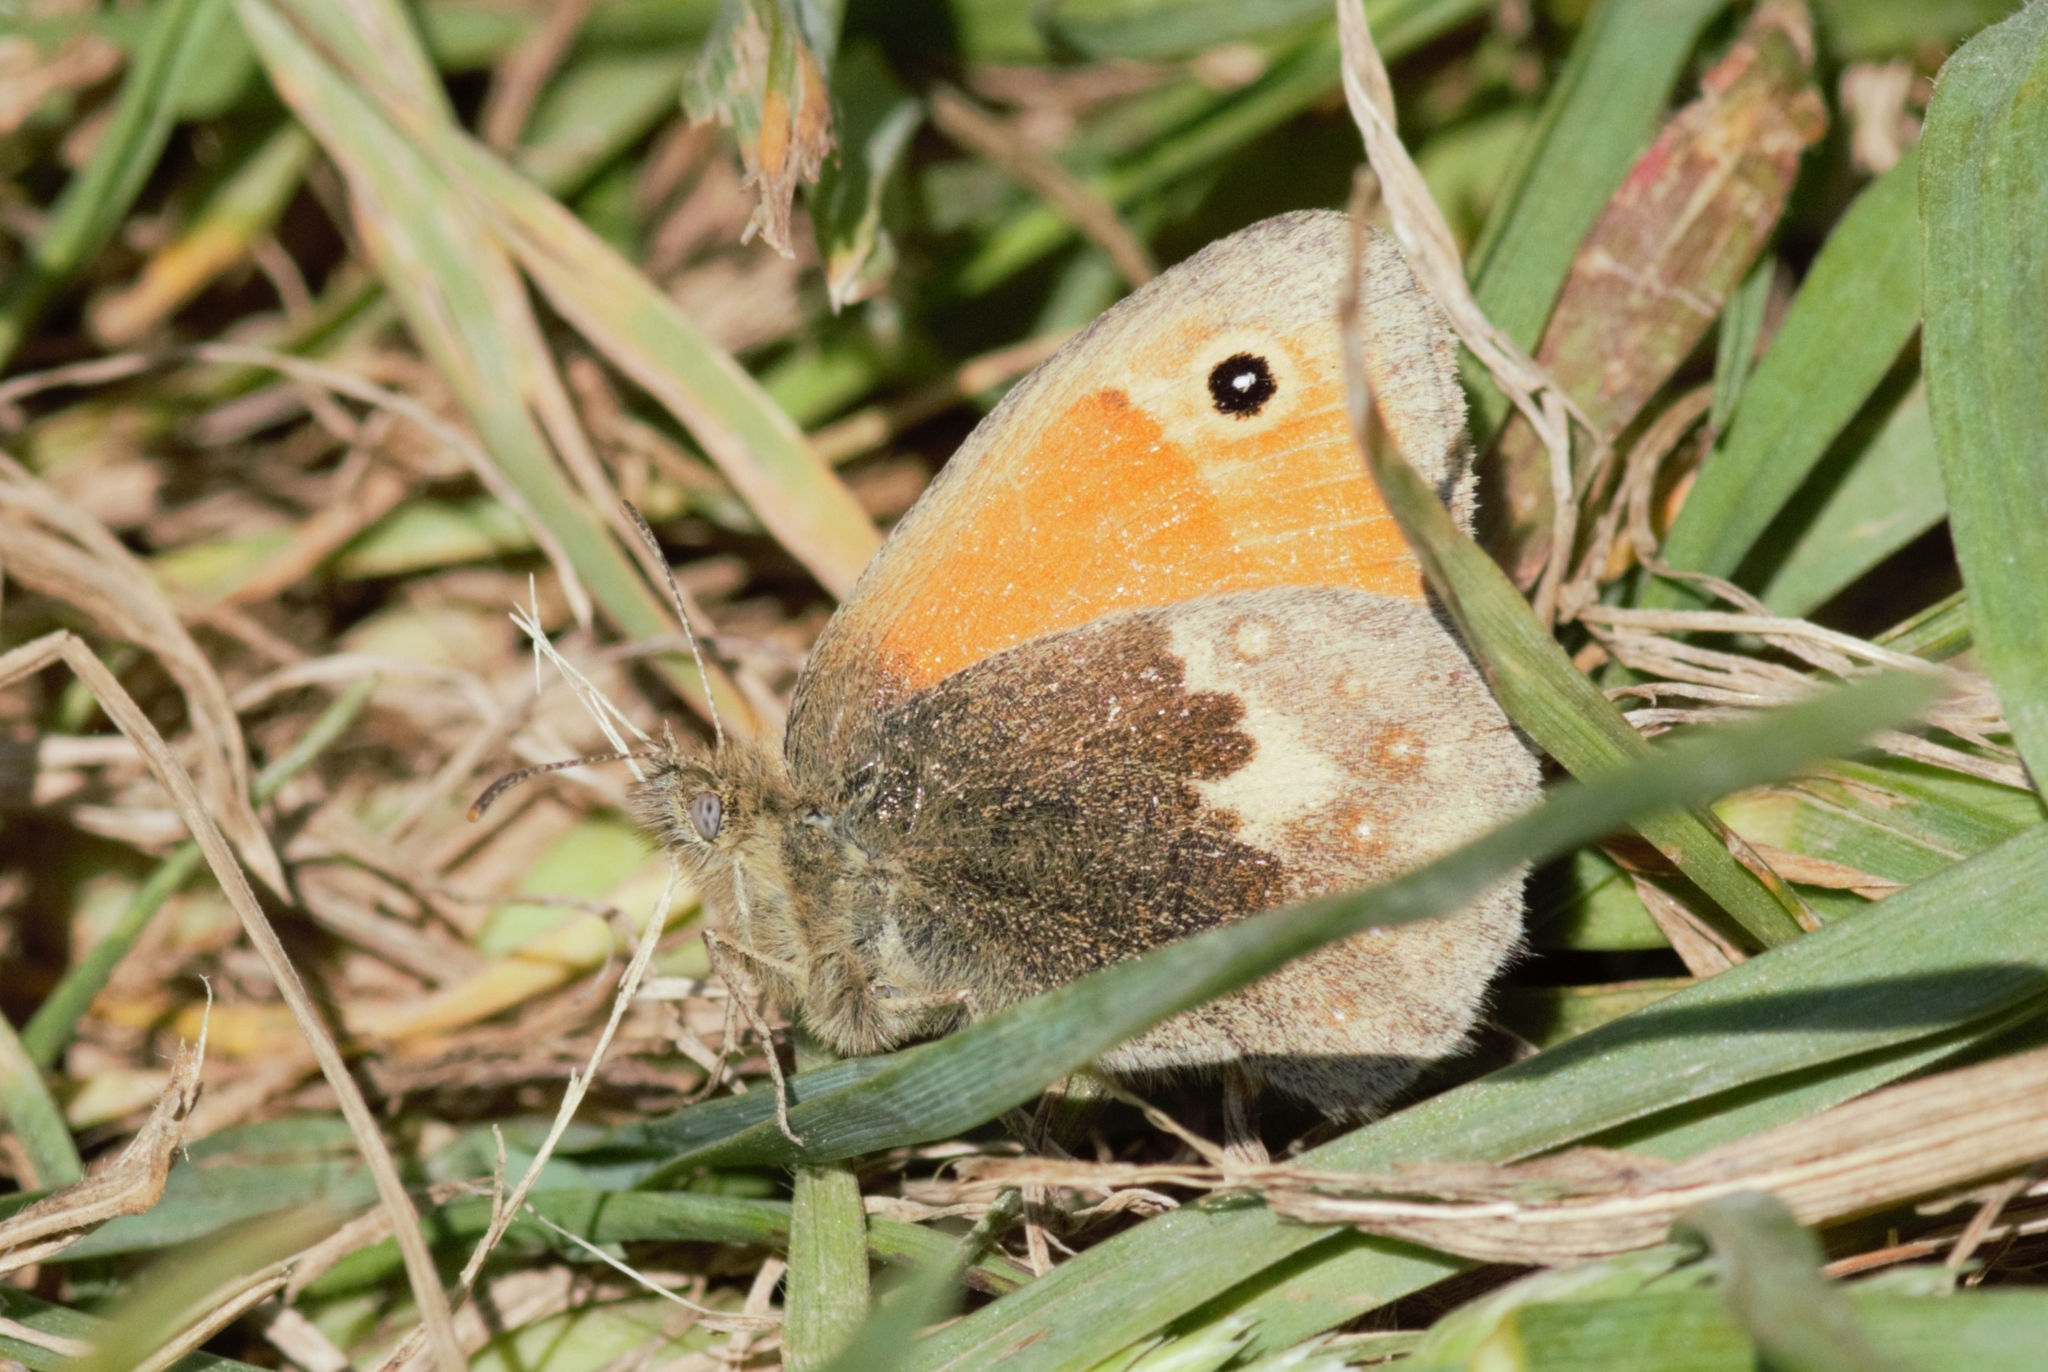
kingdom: Animalia
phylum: Arthropoda
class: Insecta
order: Lepidoptera
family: Nymphalidae
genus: Coenonympha
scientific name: Coenonympha pamphilus
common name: Small heath
